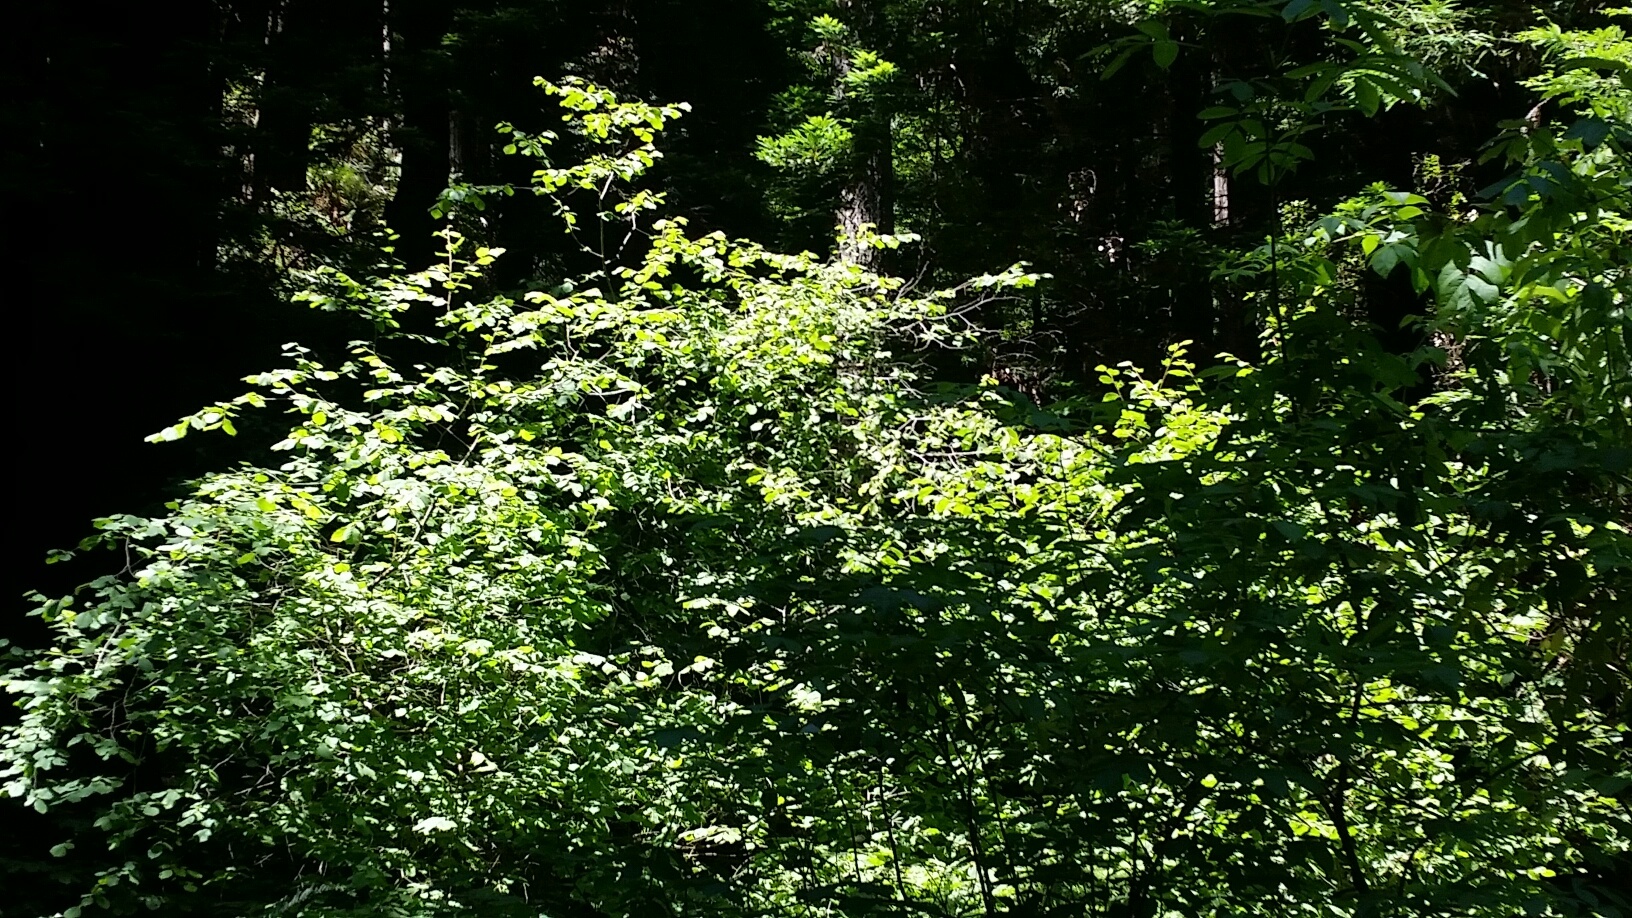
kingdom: Plantae
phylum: Tracheophyta
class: Magnoliopsida
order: Fagales
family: Betulaceae
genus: Corylus
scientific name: Corylus cornuta
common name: Beaked hazel
